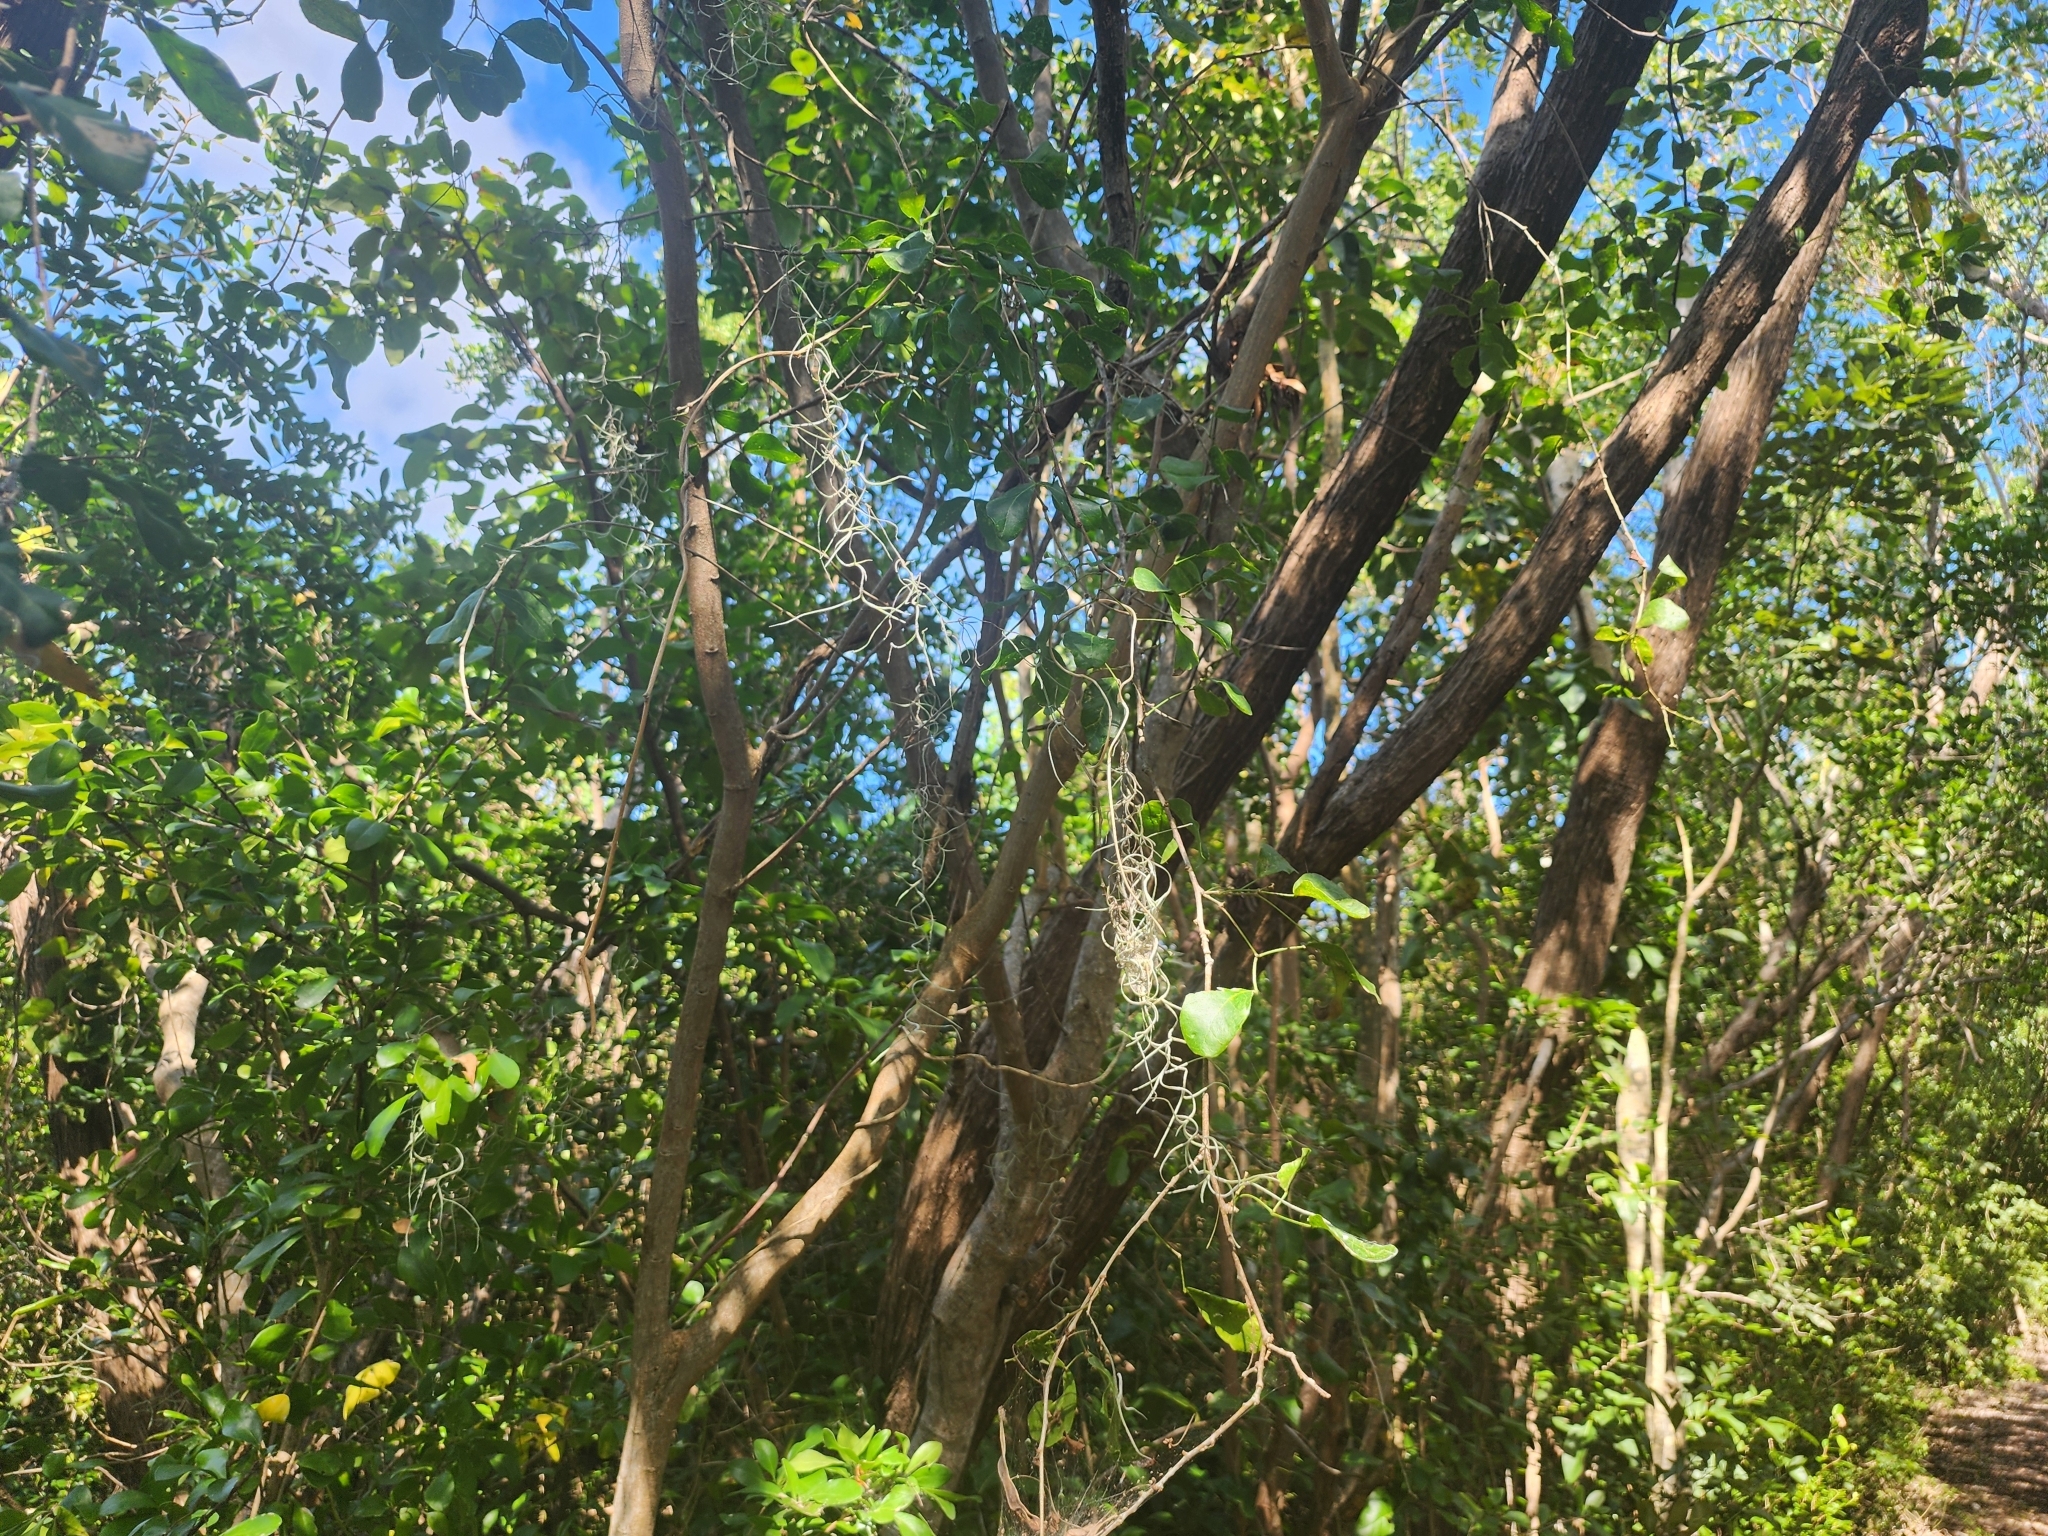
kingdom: Plantae
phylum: Tracheophyta
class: Liliopsida
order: Poales
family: Bromeliaceae
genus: Tillandsia
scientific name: Tillandsia usneoides
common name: Spanish moss
